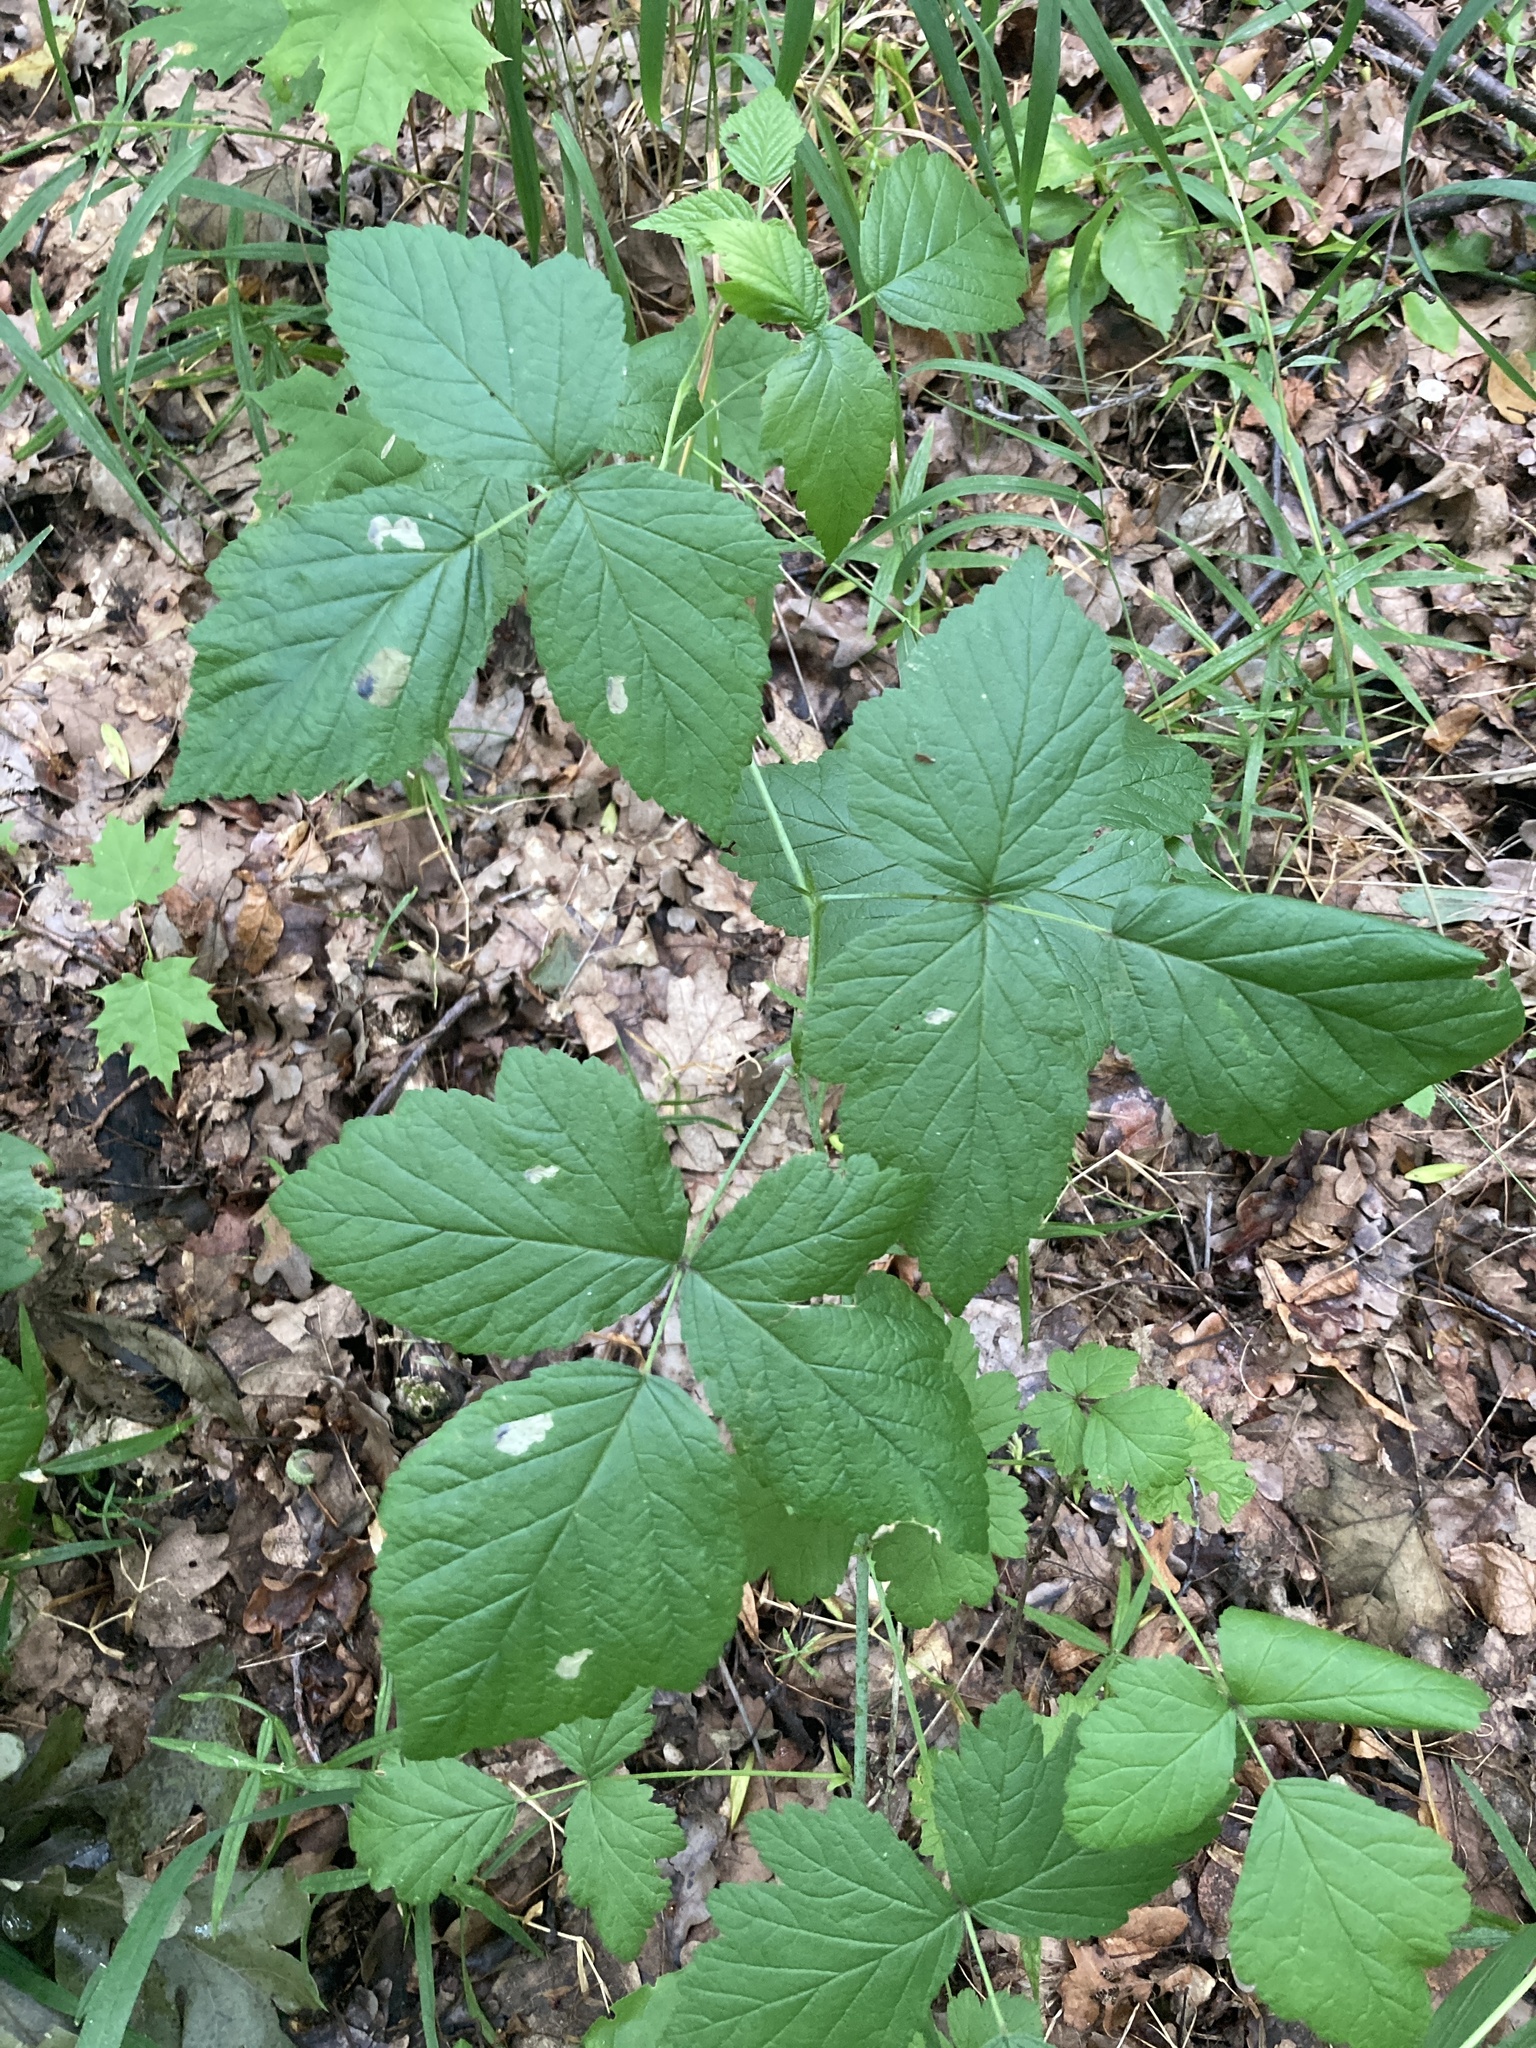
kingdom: Plantae
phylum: Tracheophyta
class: Magnoliopsida
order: Rosales
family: Rosaceae
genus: Rubus
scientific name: Rubus caesius
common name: Dewberry
